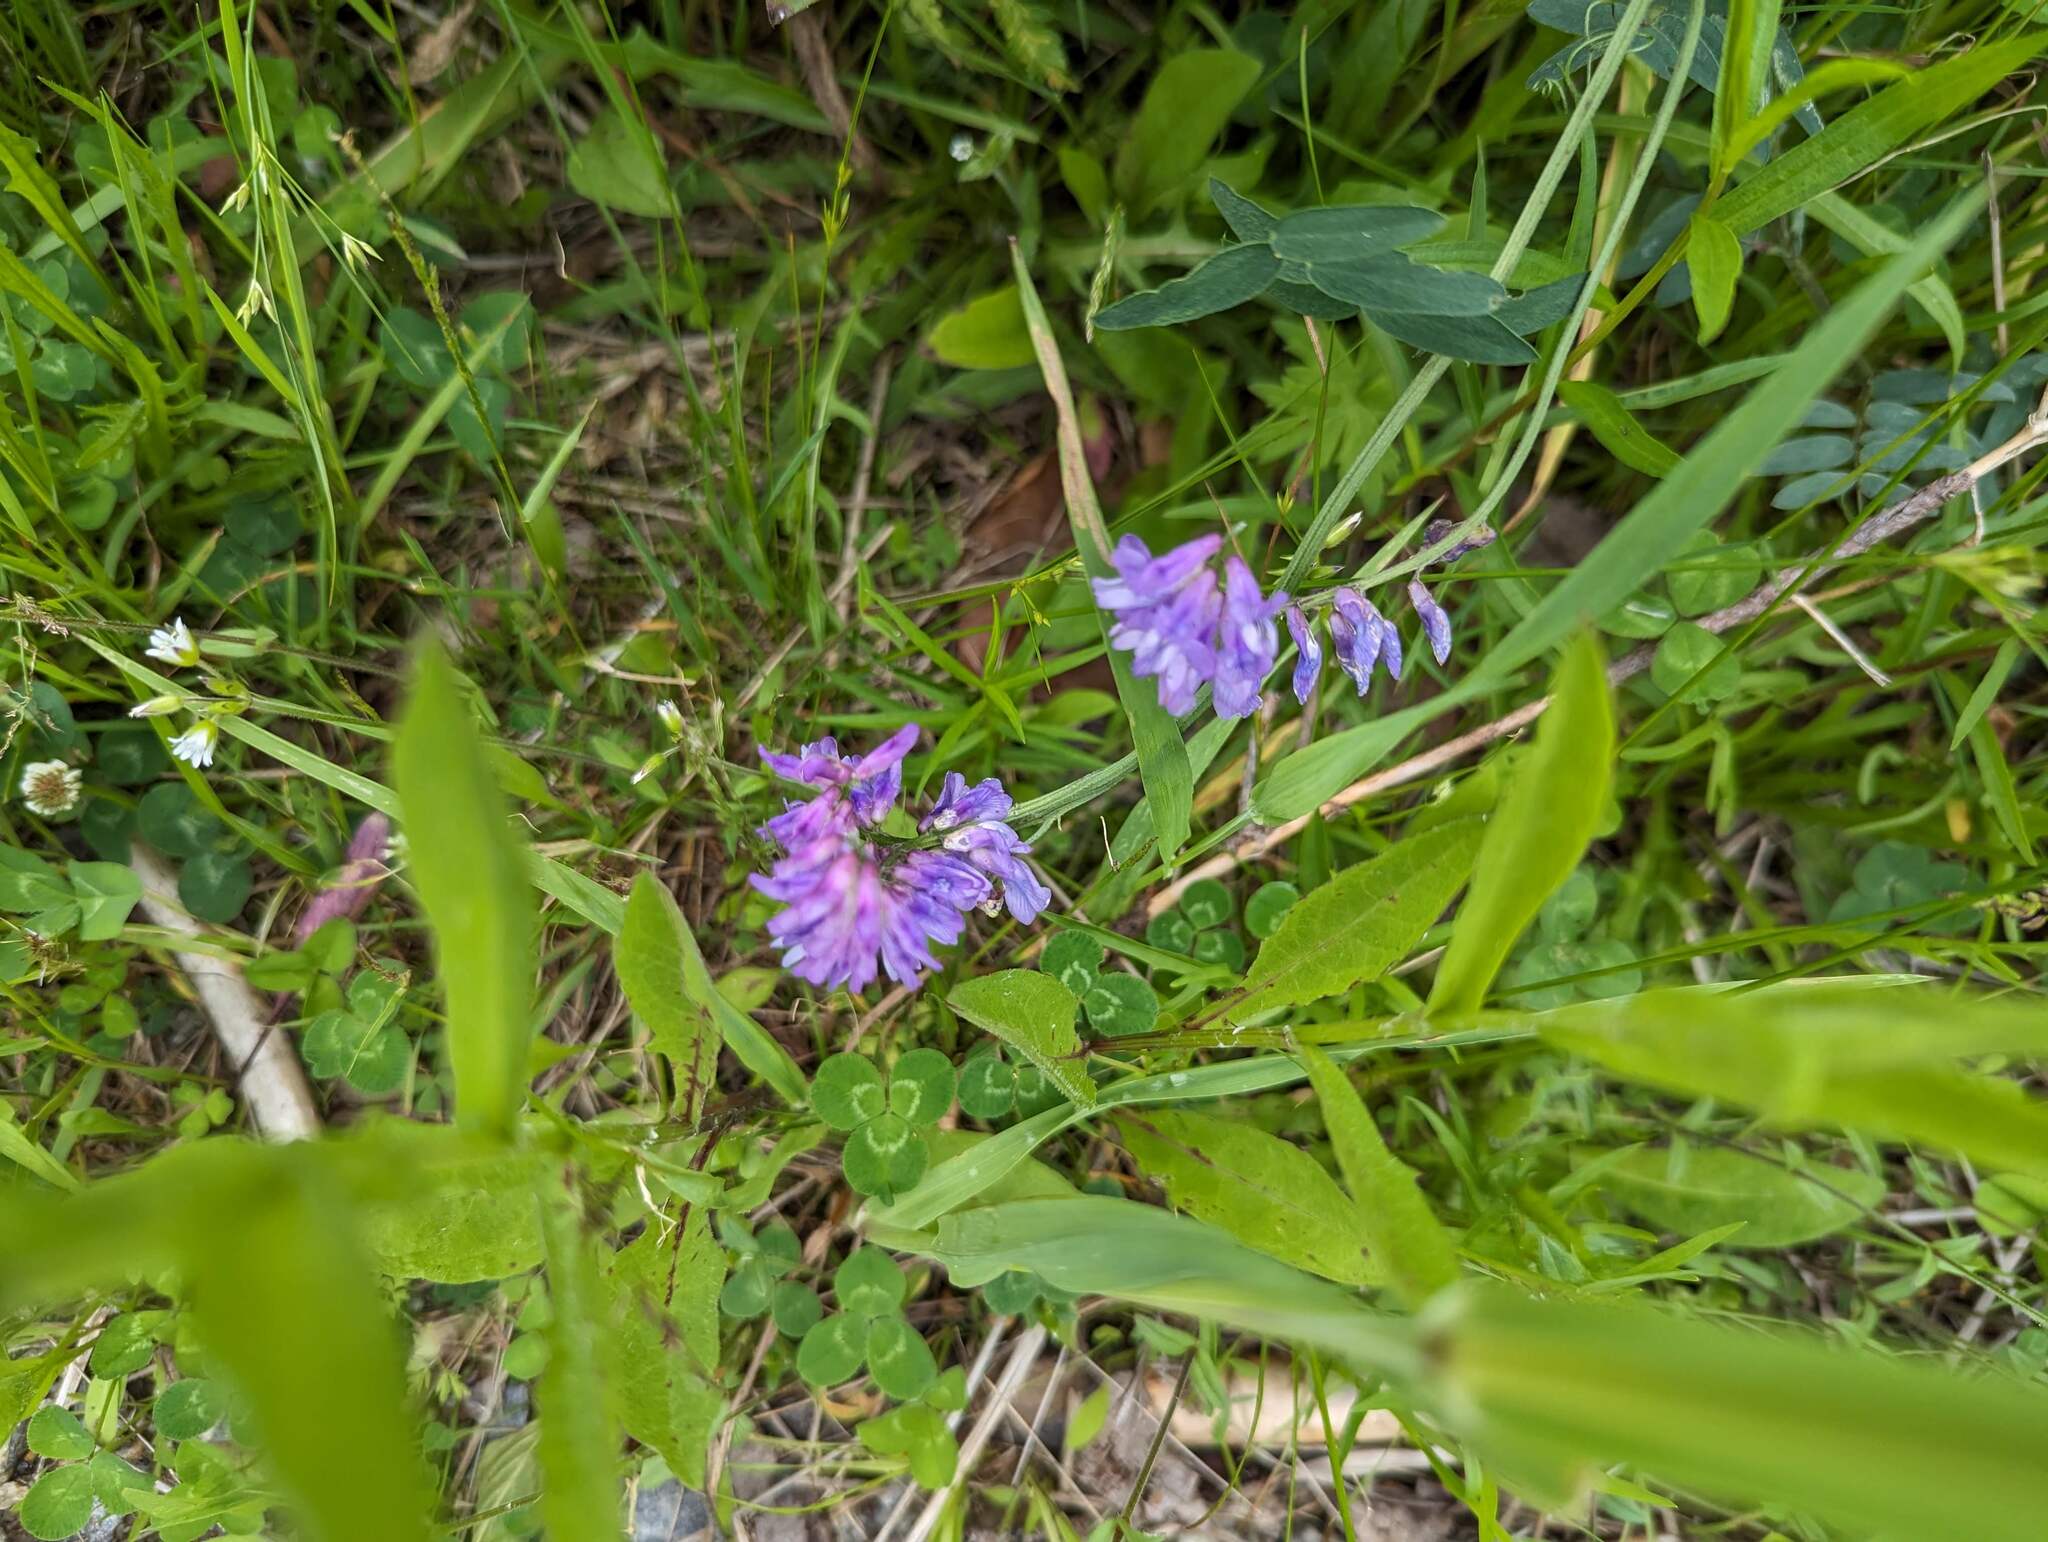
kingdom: Plantae
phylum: Tracheophyta
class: Magnoliopsida
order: Fabales
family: Fabaceae
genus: Vicia
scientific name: Vicia cracca
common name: Bird vetch
